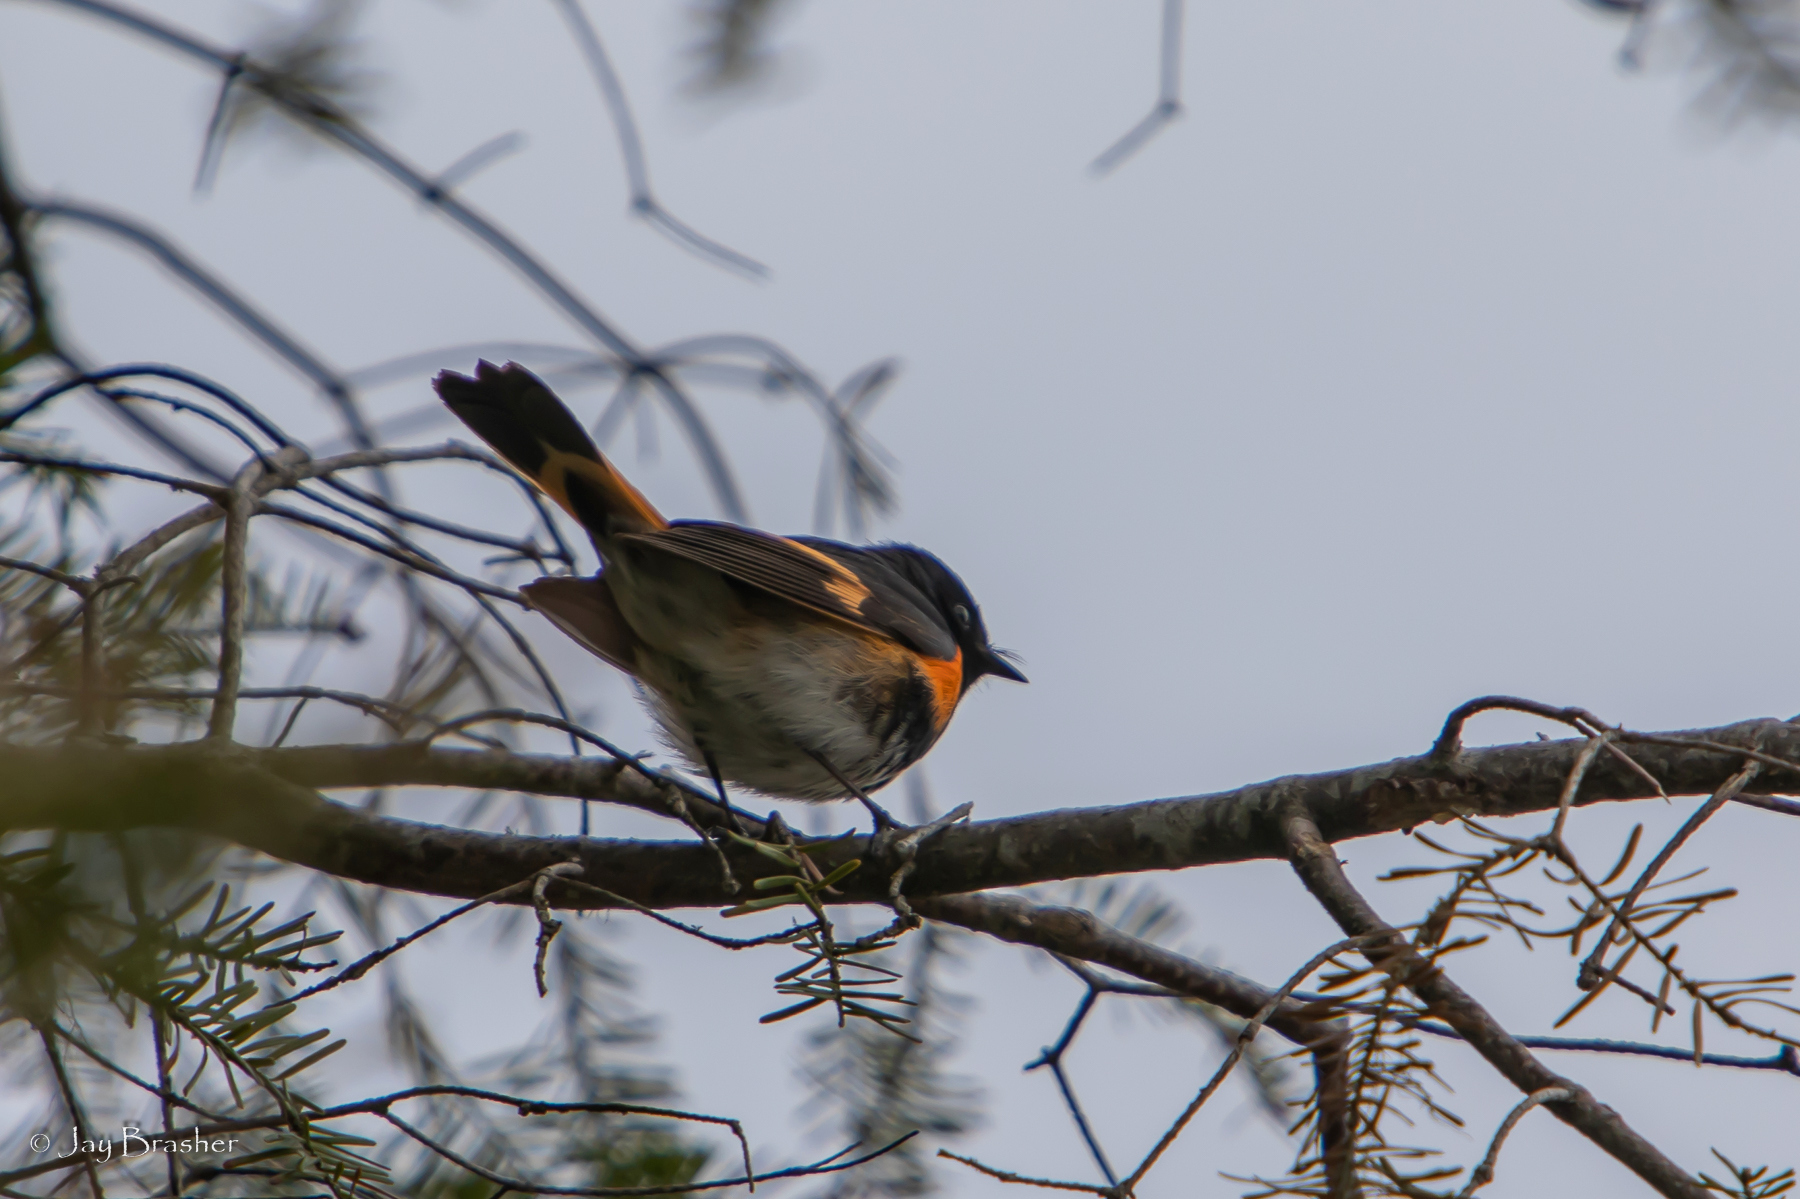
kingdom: Animalia
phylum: Chordata
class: Aves
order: Passeriformes
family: Parulidae
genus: Setophaga
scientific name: Setophaga ruticilla
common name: American redstart
